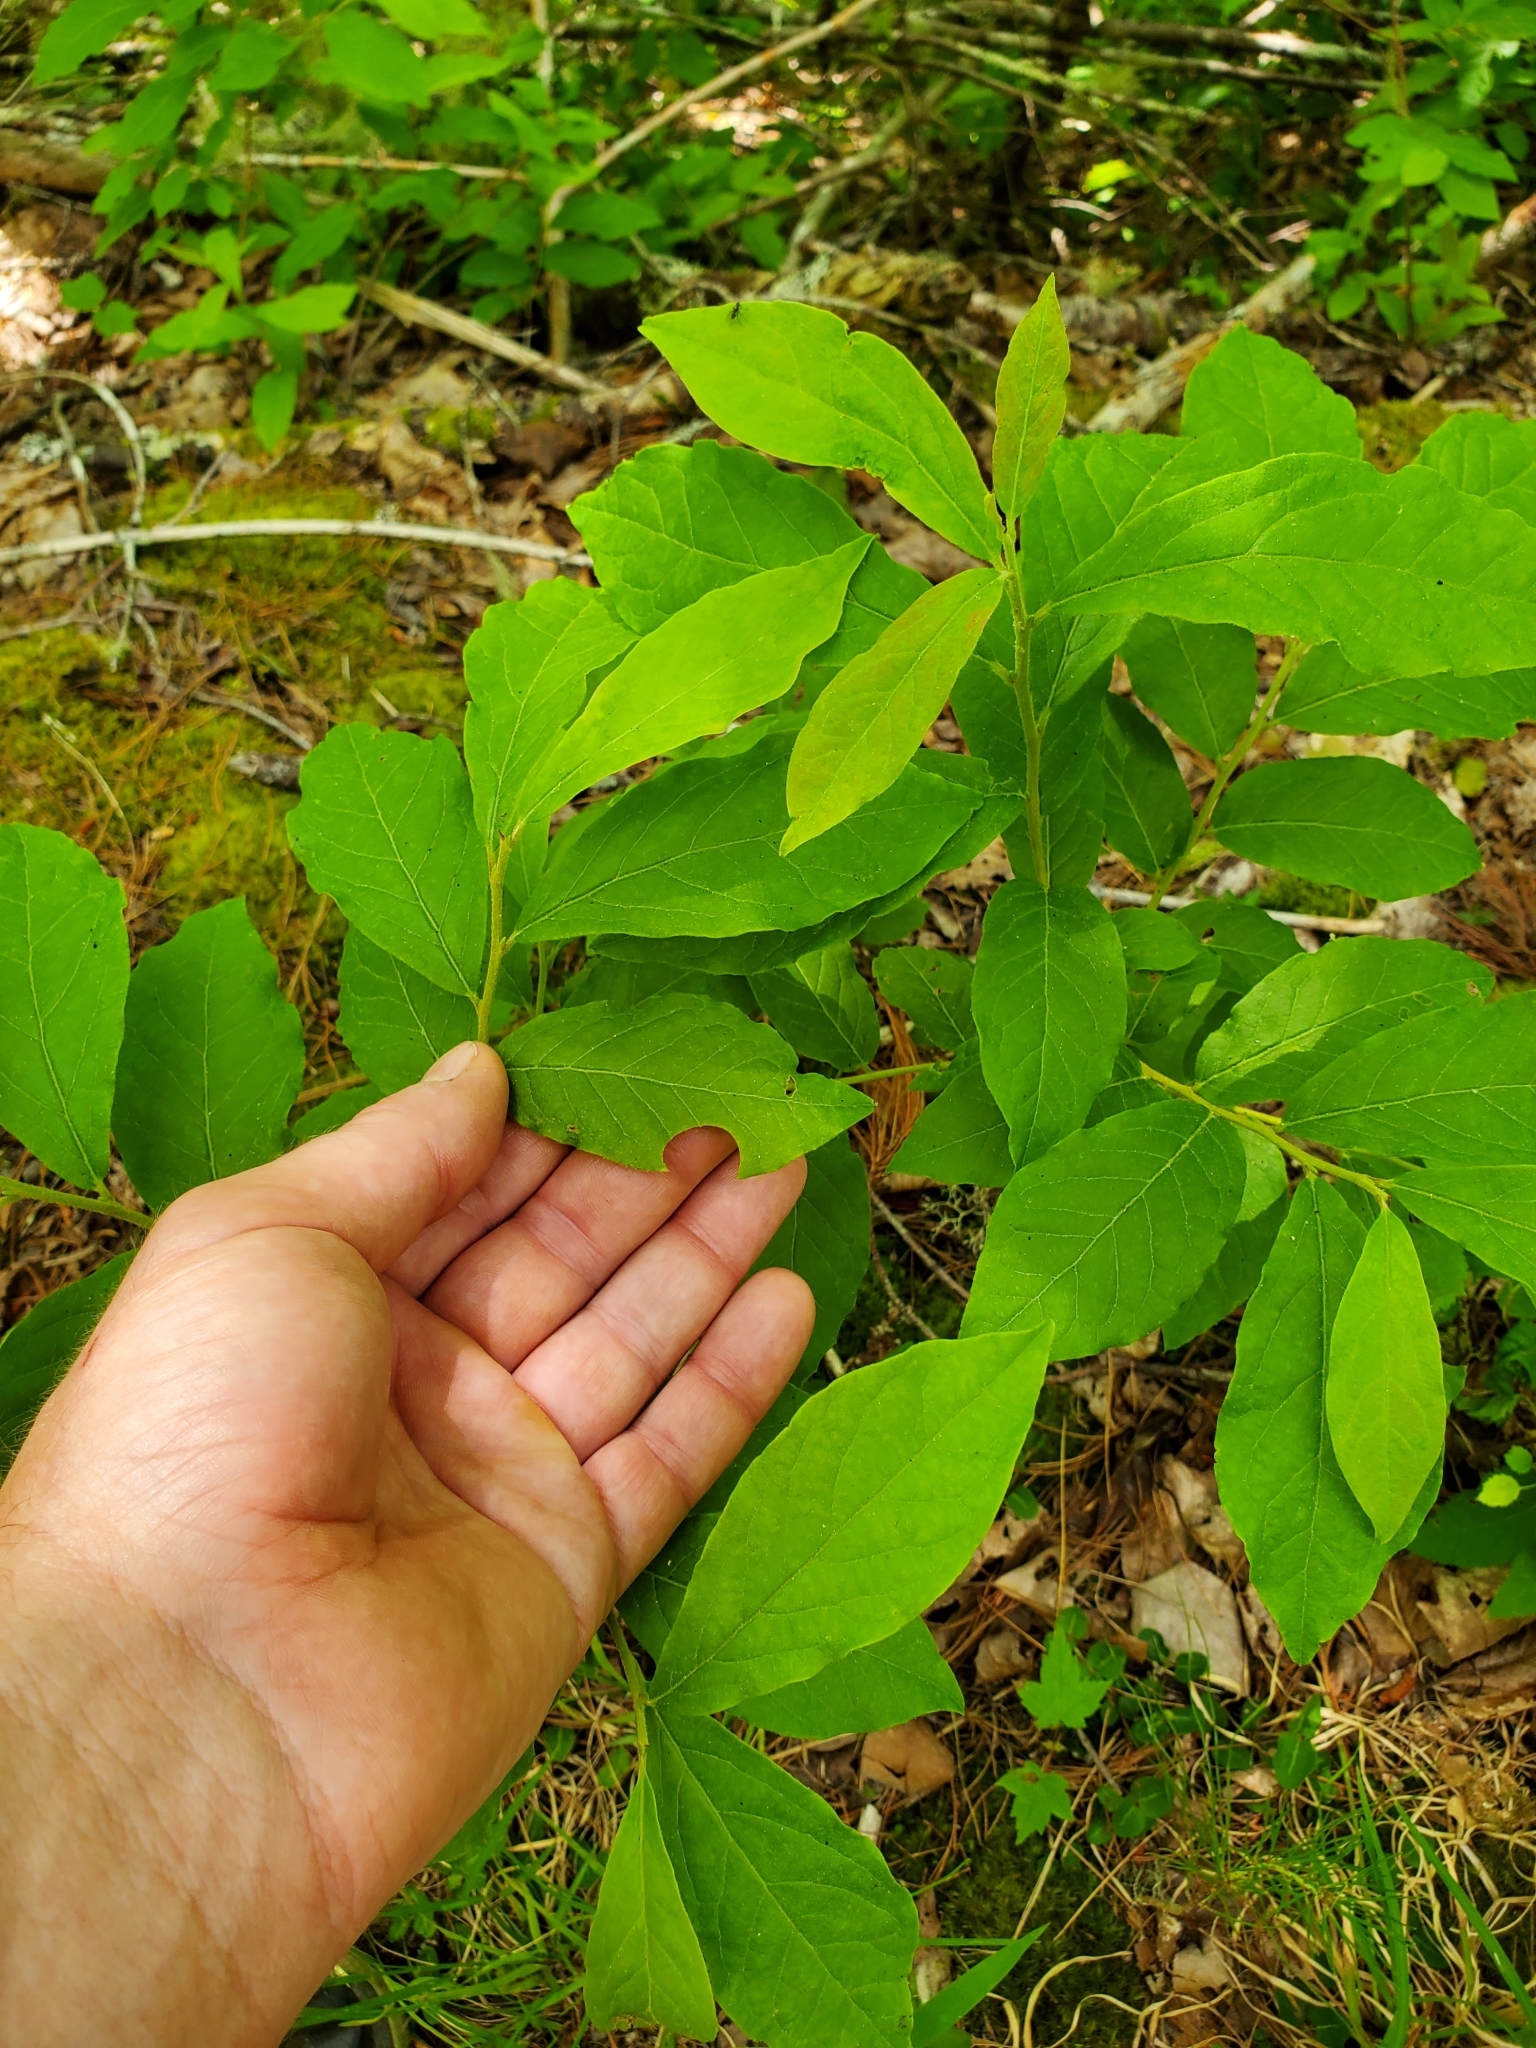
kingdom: Plantae
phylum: Tracheophyta
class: Magnoliopsida
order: Santalales
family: Cervantesiaceae
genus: Pyrularia
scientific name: Pyrularia pubera
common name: Oilnut
